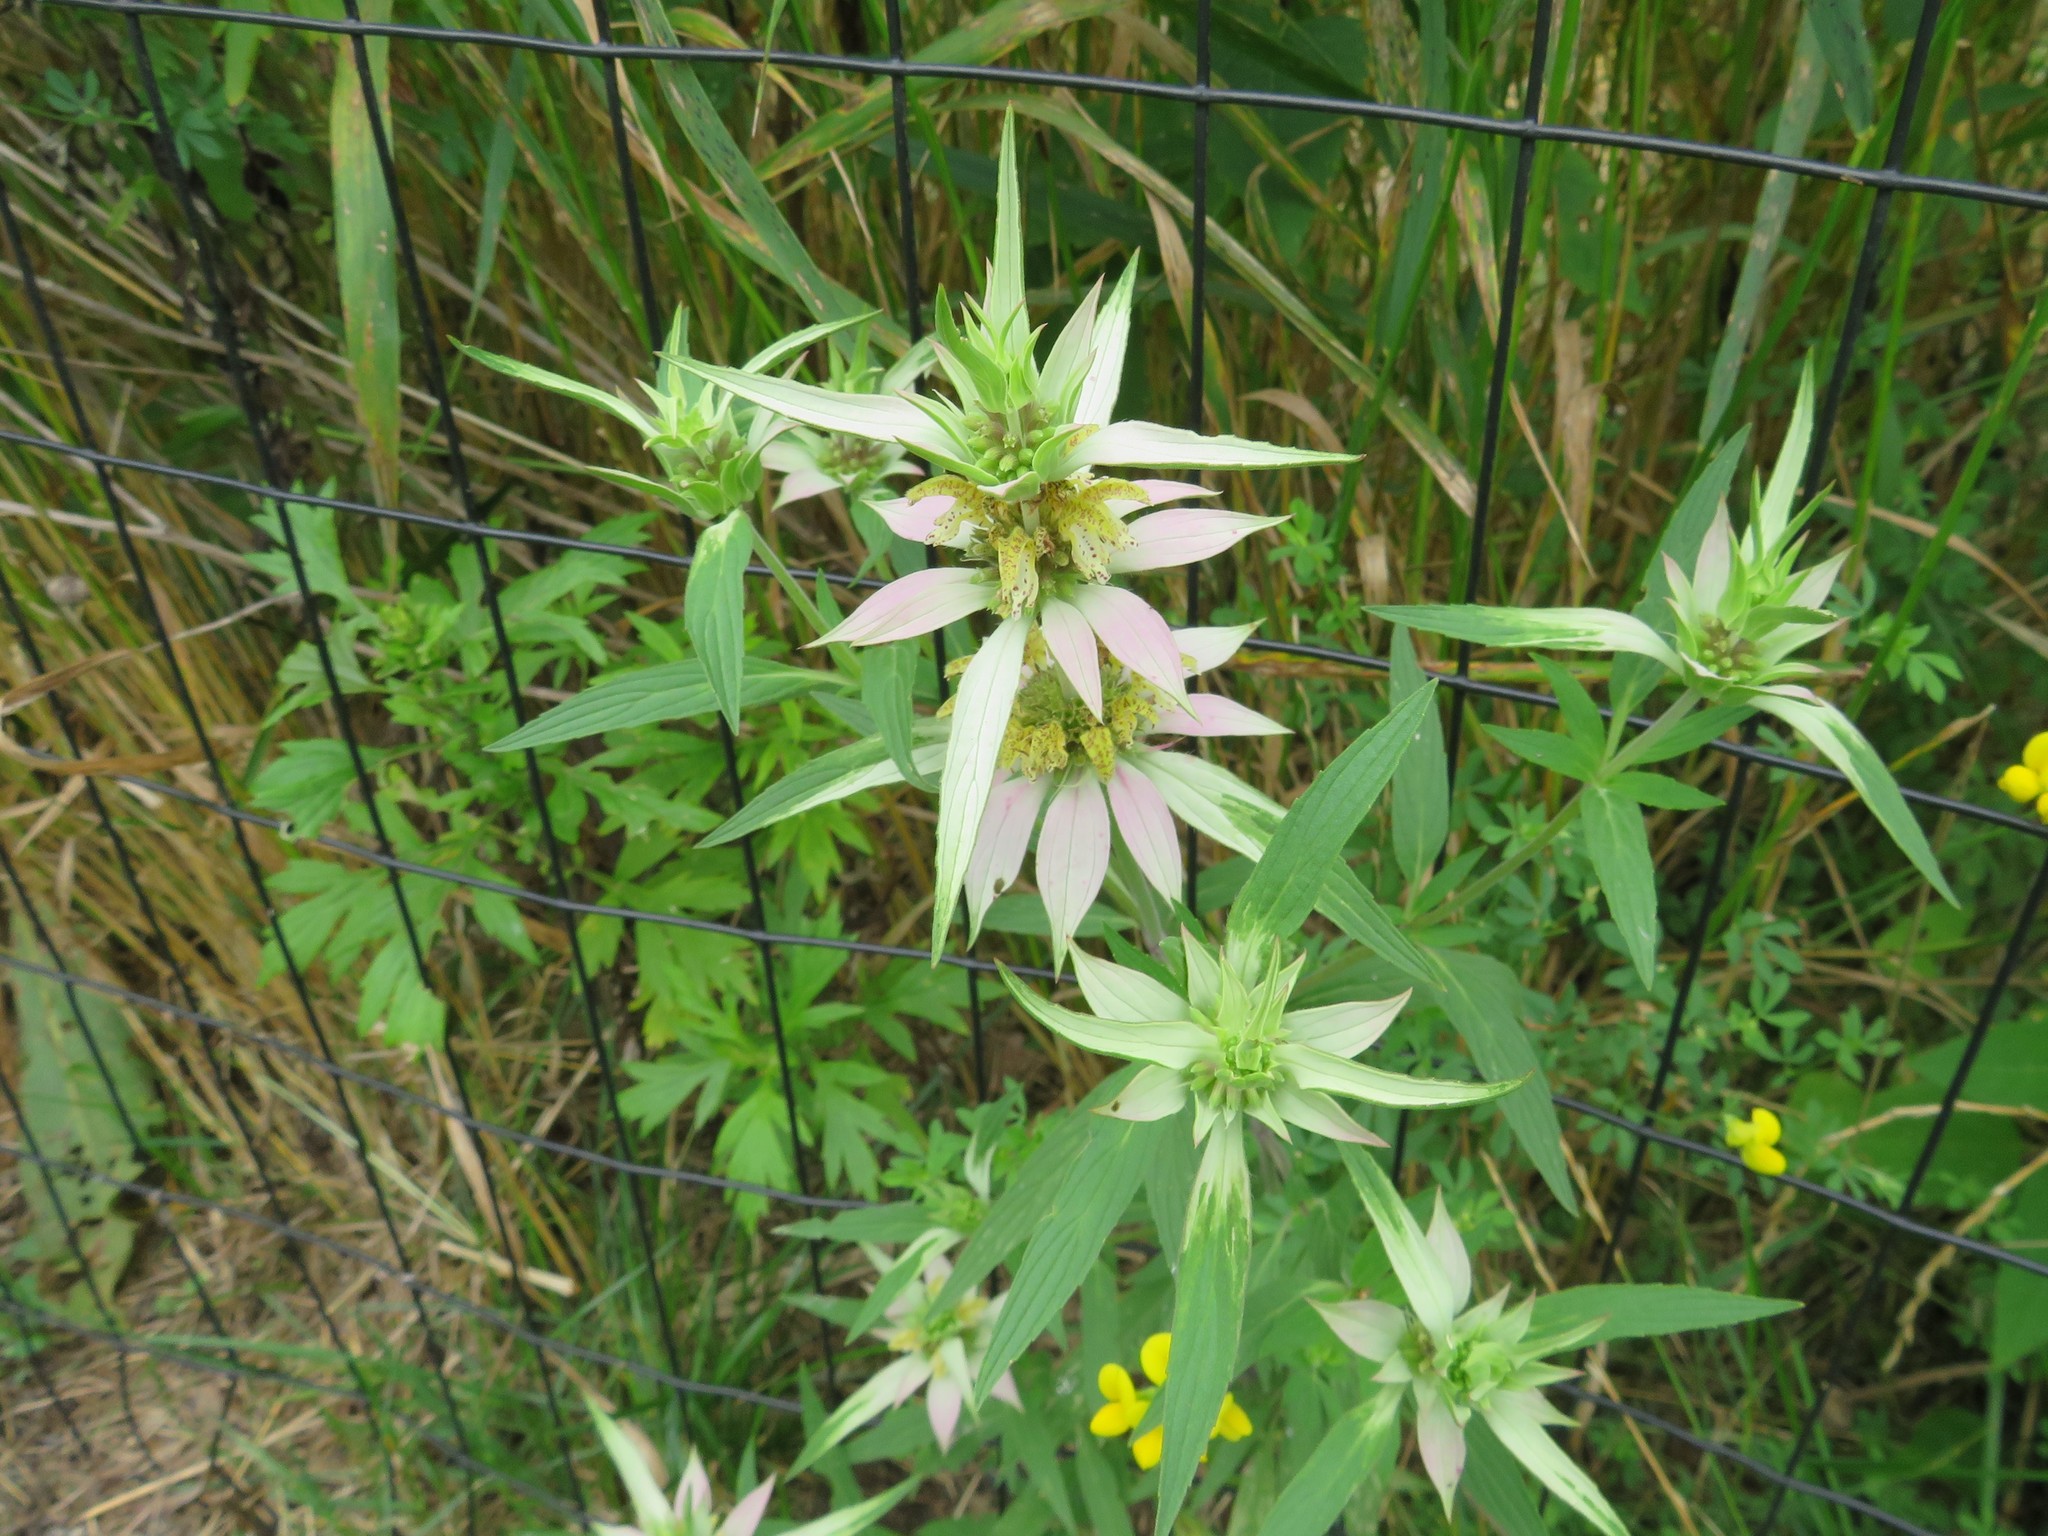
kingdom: Plantae
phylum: Tracheophyta
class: Magnoliopsida
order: Lamiales
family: Lamiaceae
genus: Monarda
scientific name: Monarda punctata
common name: Dotted monarda
